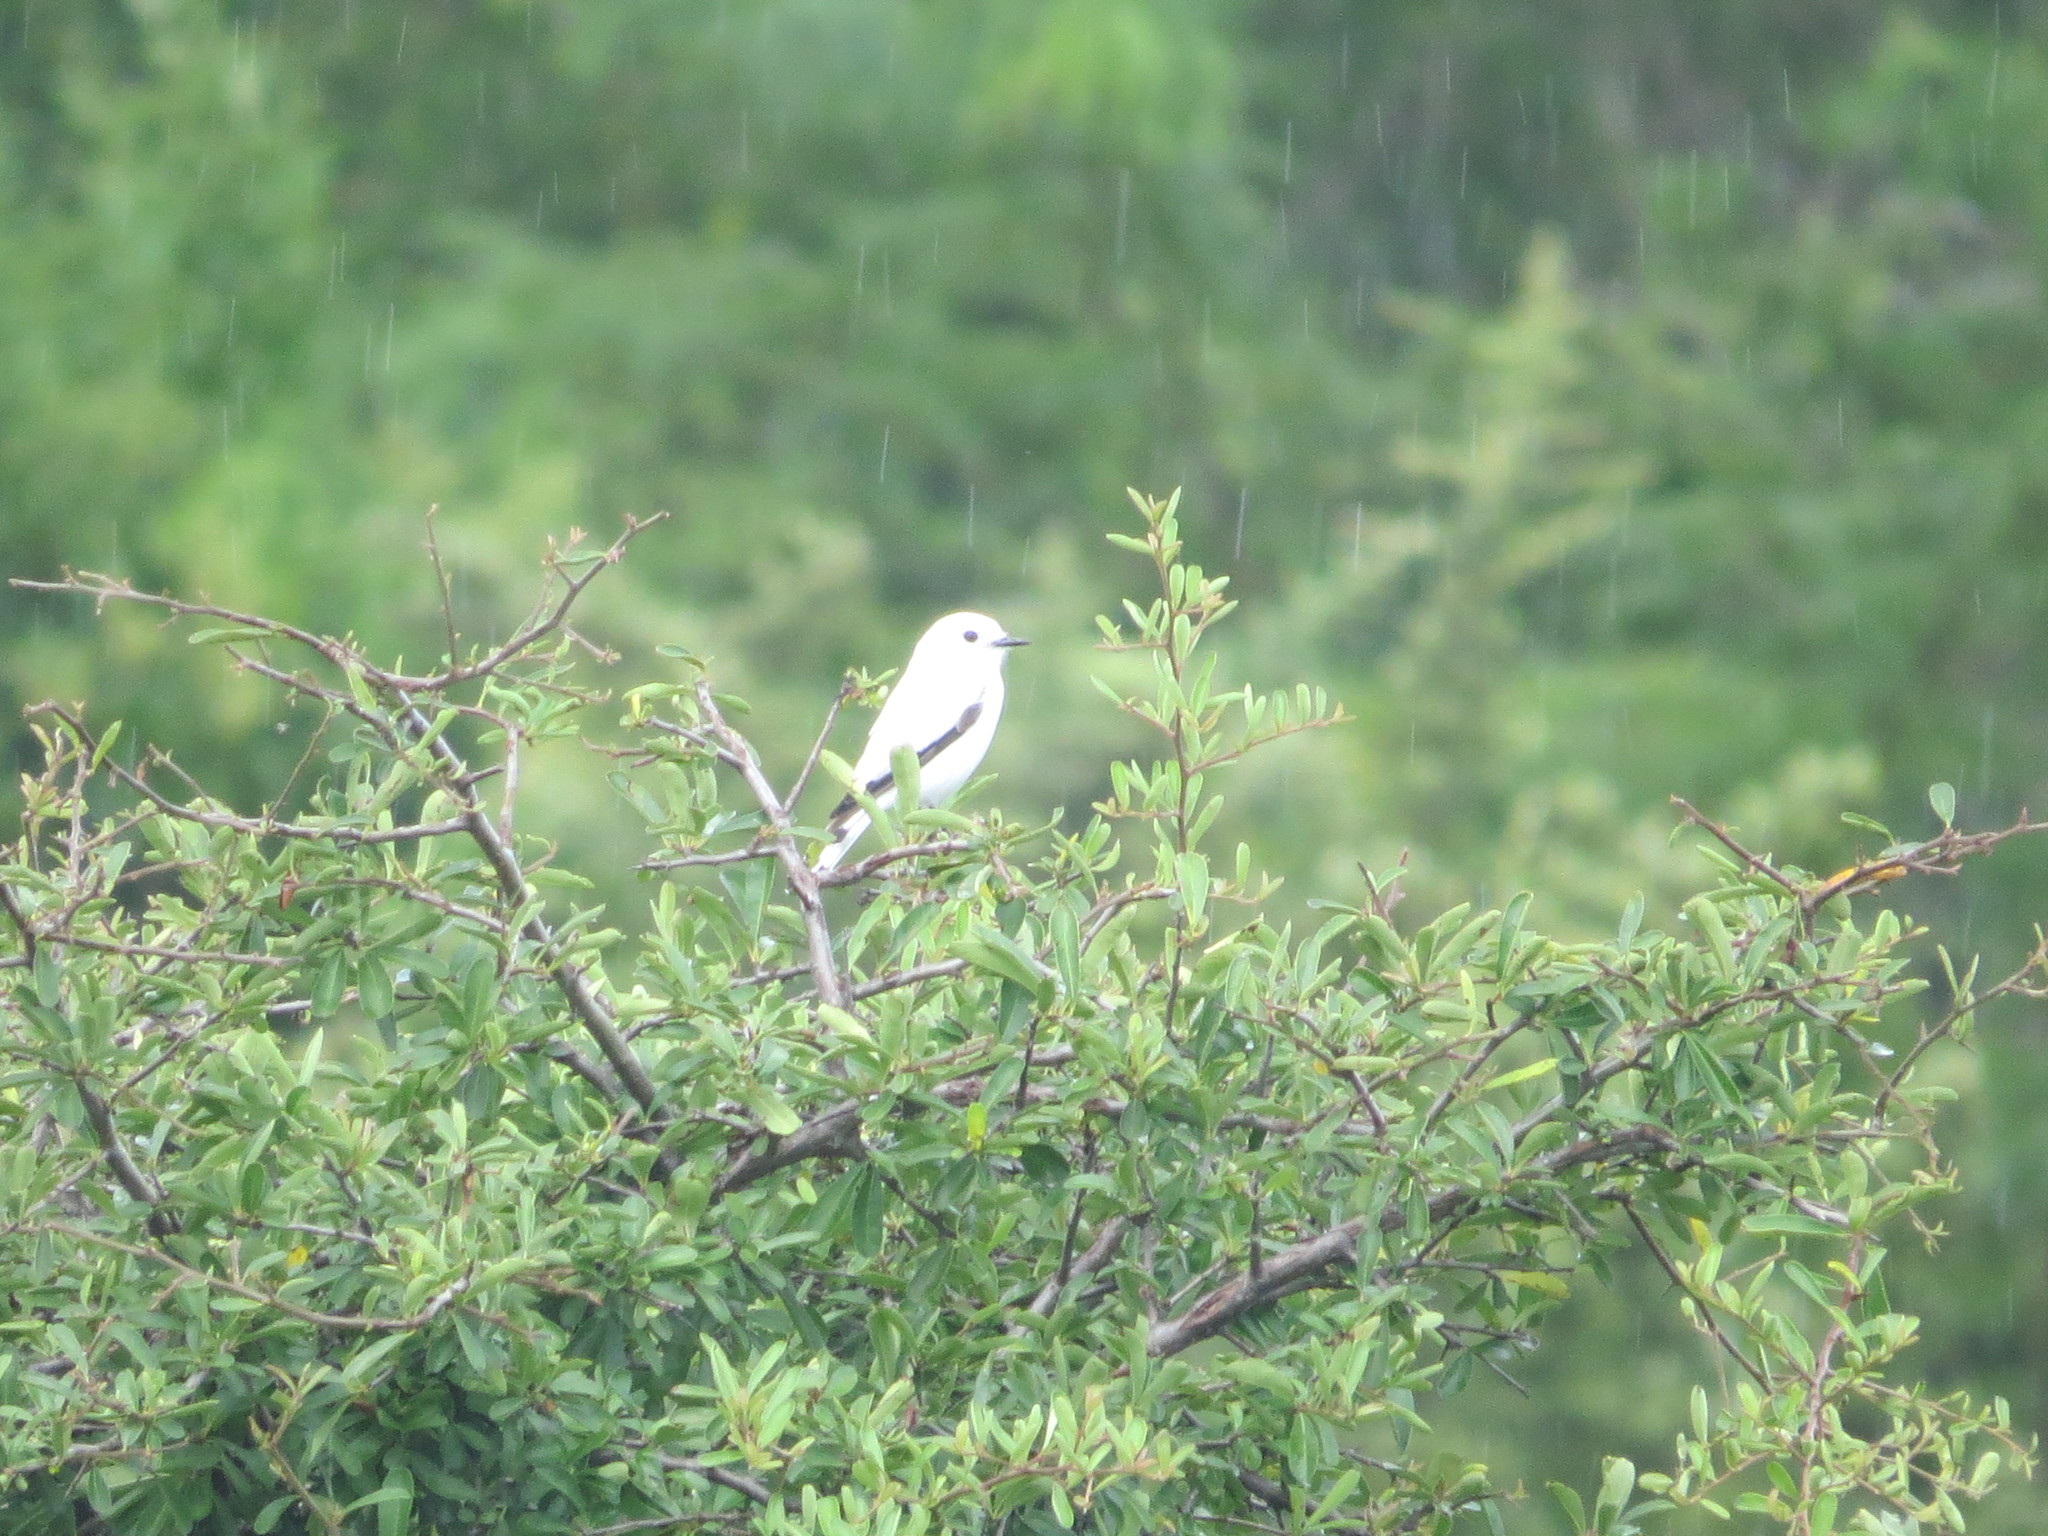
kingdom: Animalia
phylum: Chordata
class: Aves
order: Passeriformes
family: Tyrannidae
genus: Xolmis
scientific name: Xolmis irupero
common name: White monjita
